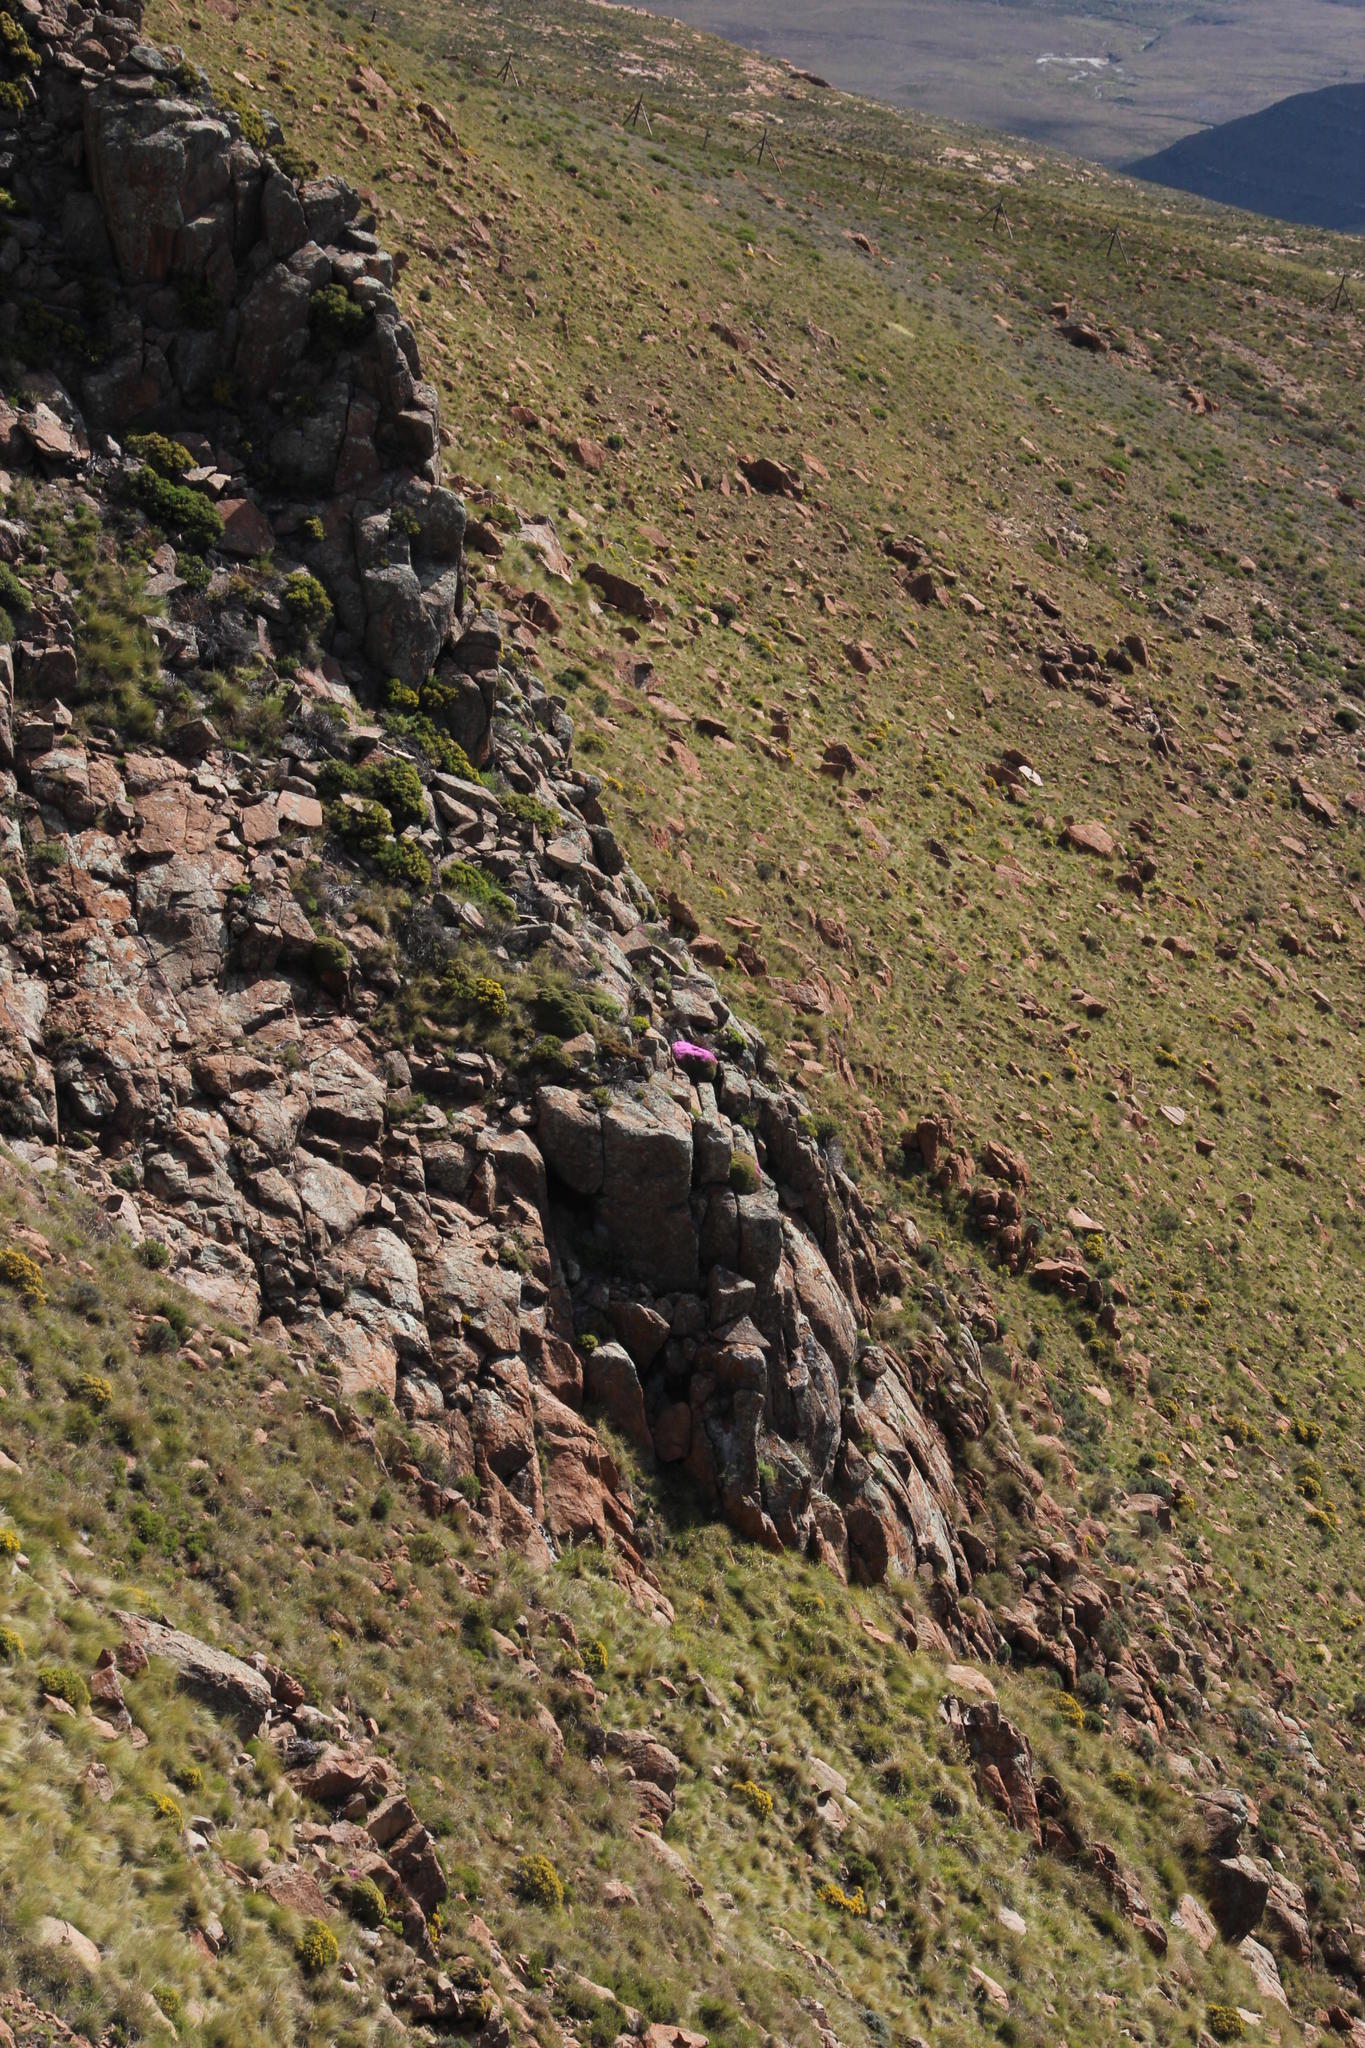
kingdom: Plantae
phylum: Tracheophyta
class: Magnoliopsida
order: Caryophyllales
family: Aizoaceae
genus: Ruschia
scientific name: Ruschia nonimpressa
